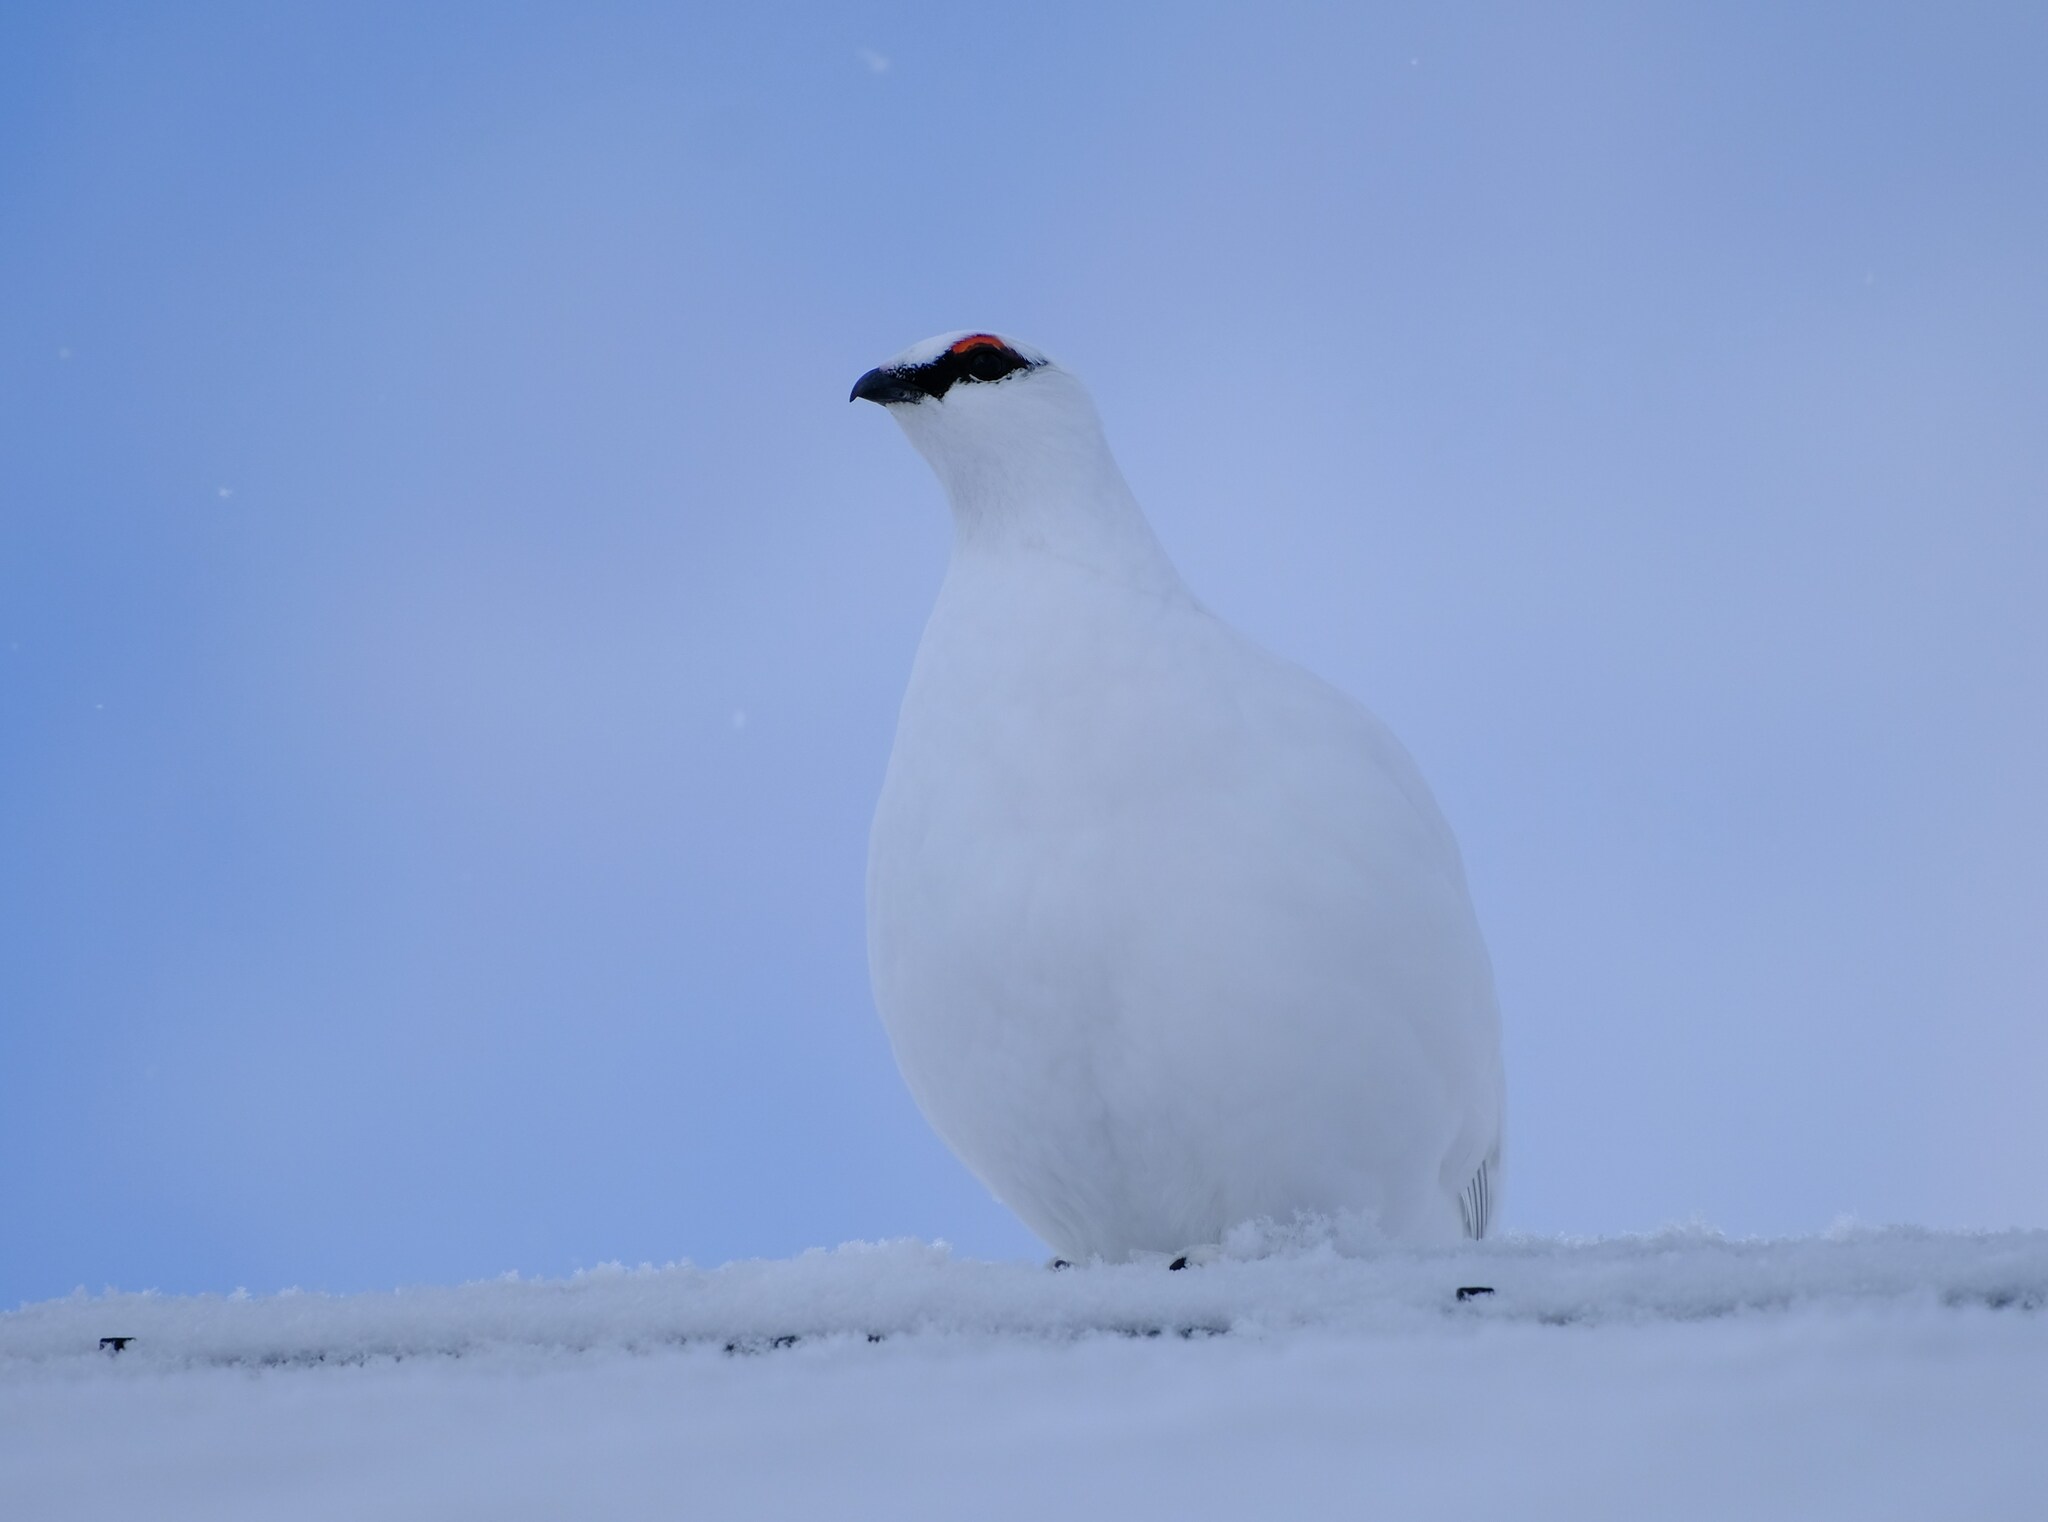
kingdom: Animalia
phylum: Chordata
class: Aves
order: Galliformes
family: Phasianidae
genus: Lagopus
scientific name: Lagopus muta
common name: Rock ptarmigan
